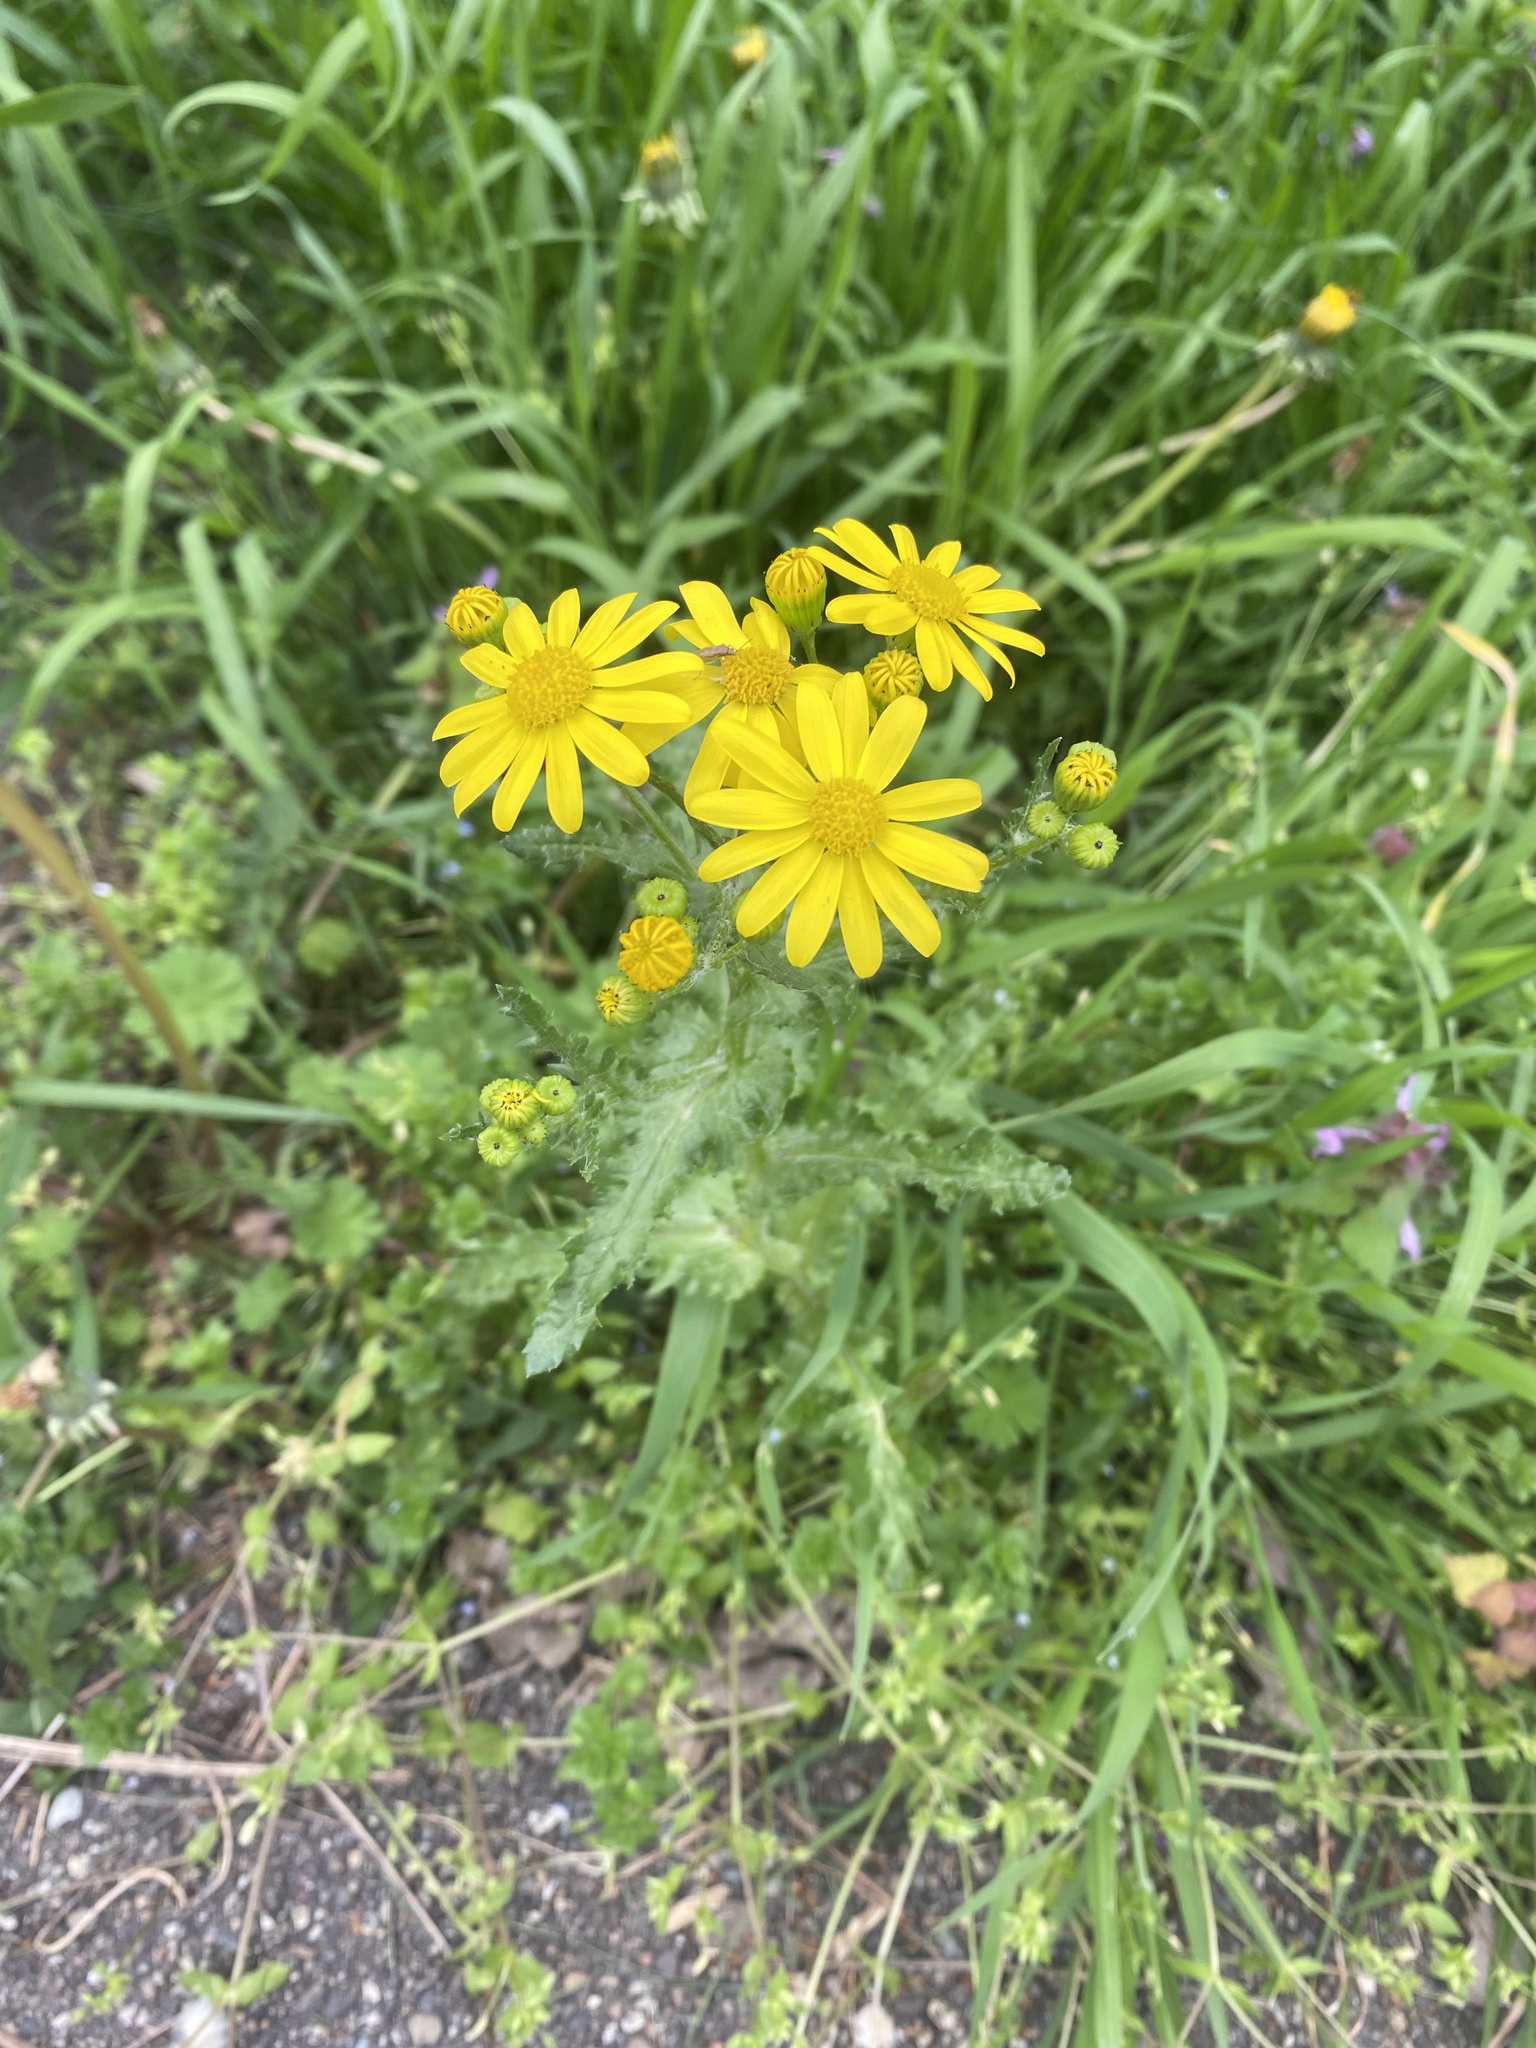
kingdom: Plantae
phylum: Tracheophyta
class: Magnoliopsida
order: Asterales
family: Asteraceae
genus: Senecio
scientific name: Senecio vernalis
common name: Eastern groundsel
